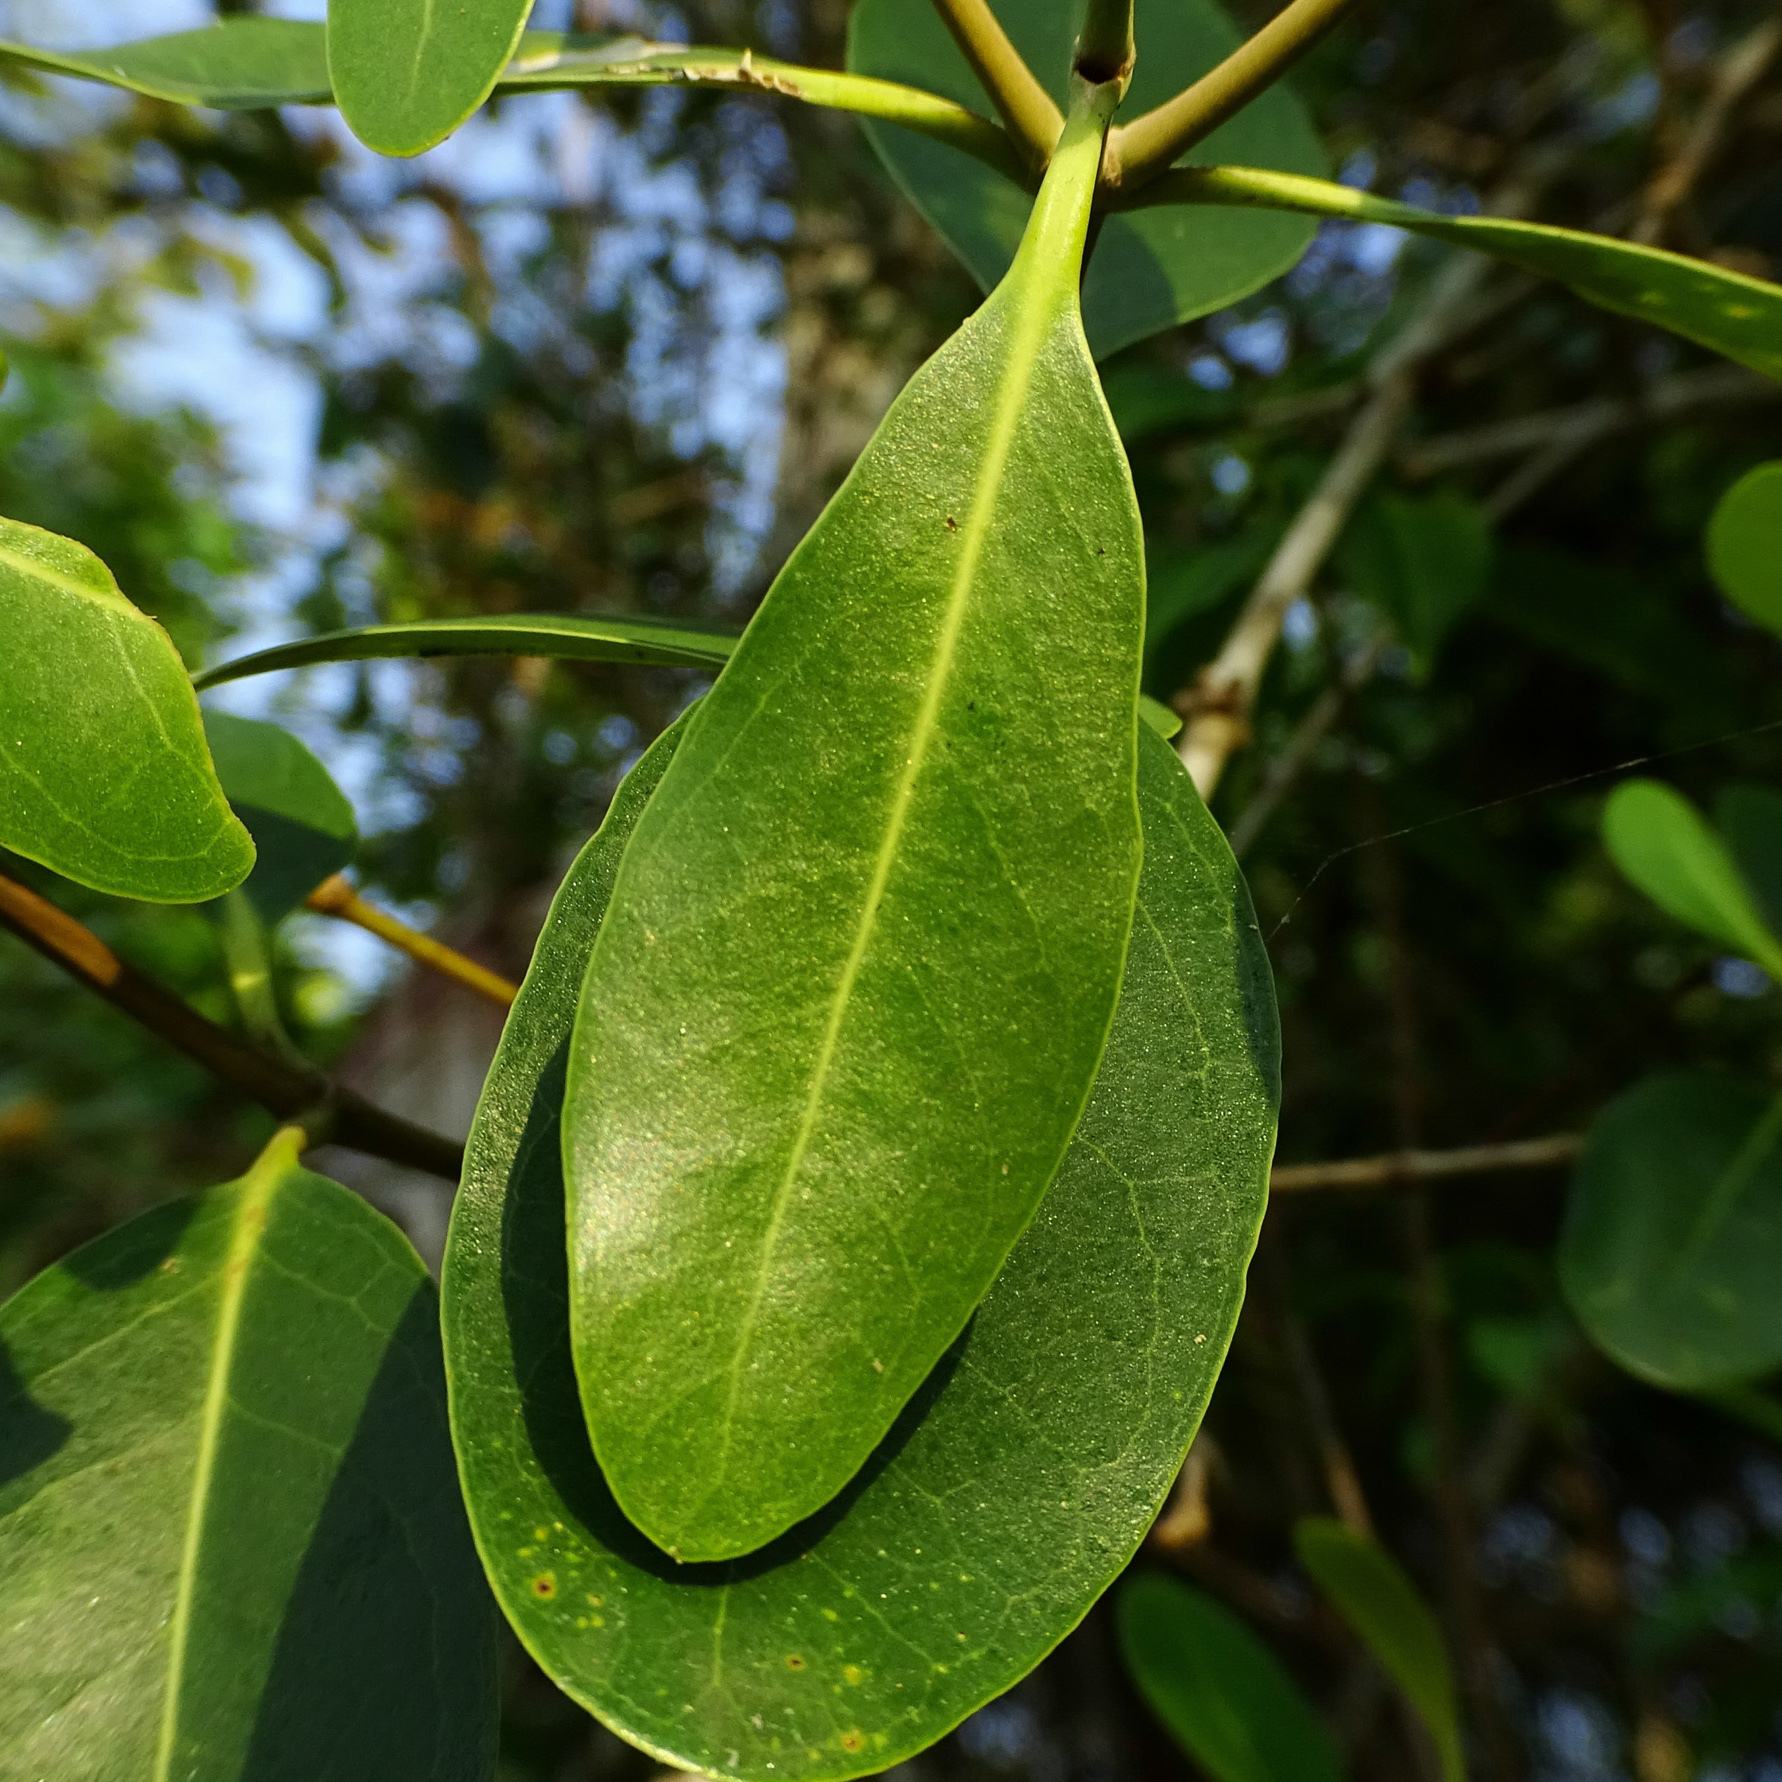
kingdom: Plantae
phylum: Tracheophyta
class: Magnoliopsida
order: Lamiales
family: Acanthaceae
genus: Avicennia
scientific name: Avicennia marina
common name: Gray mangrove
